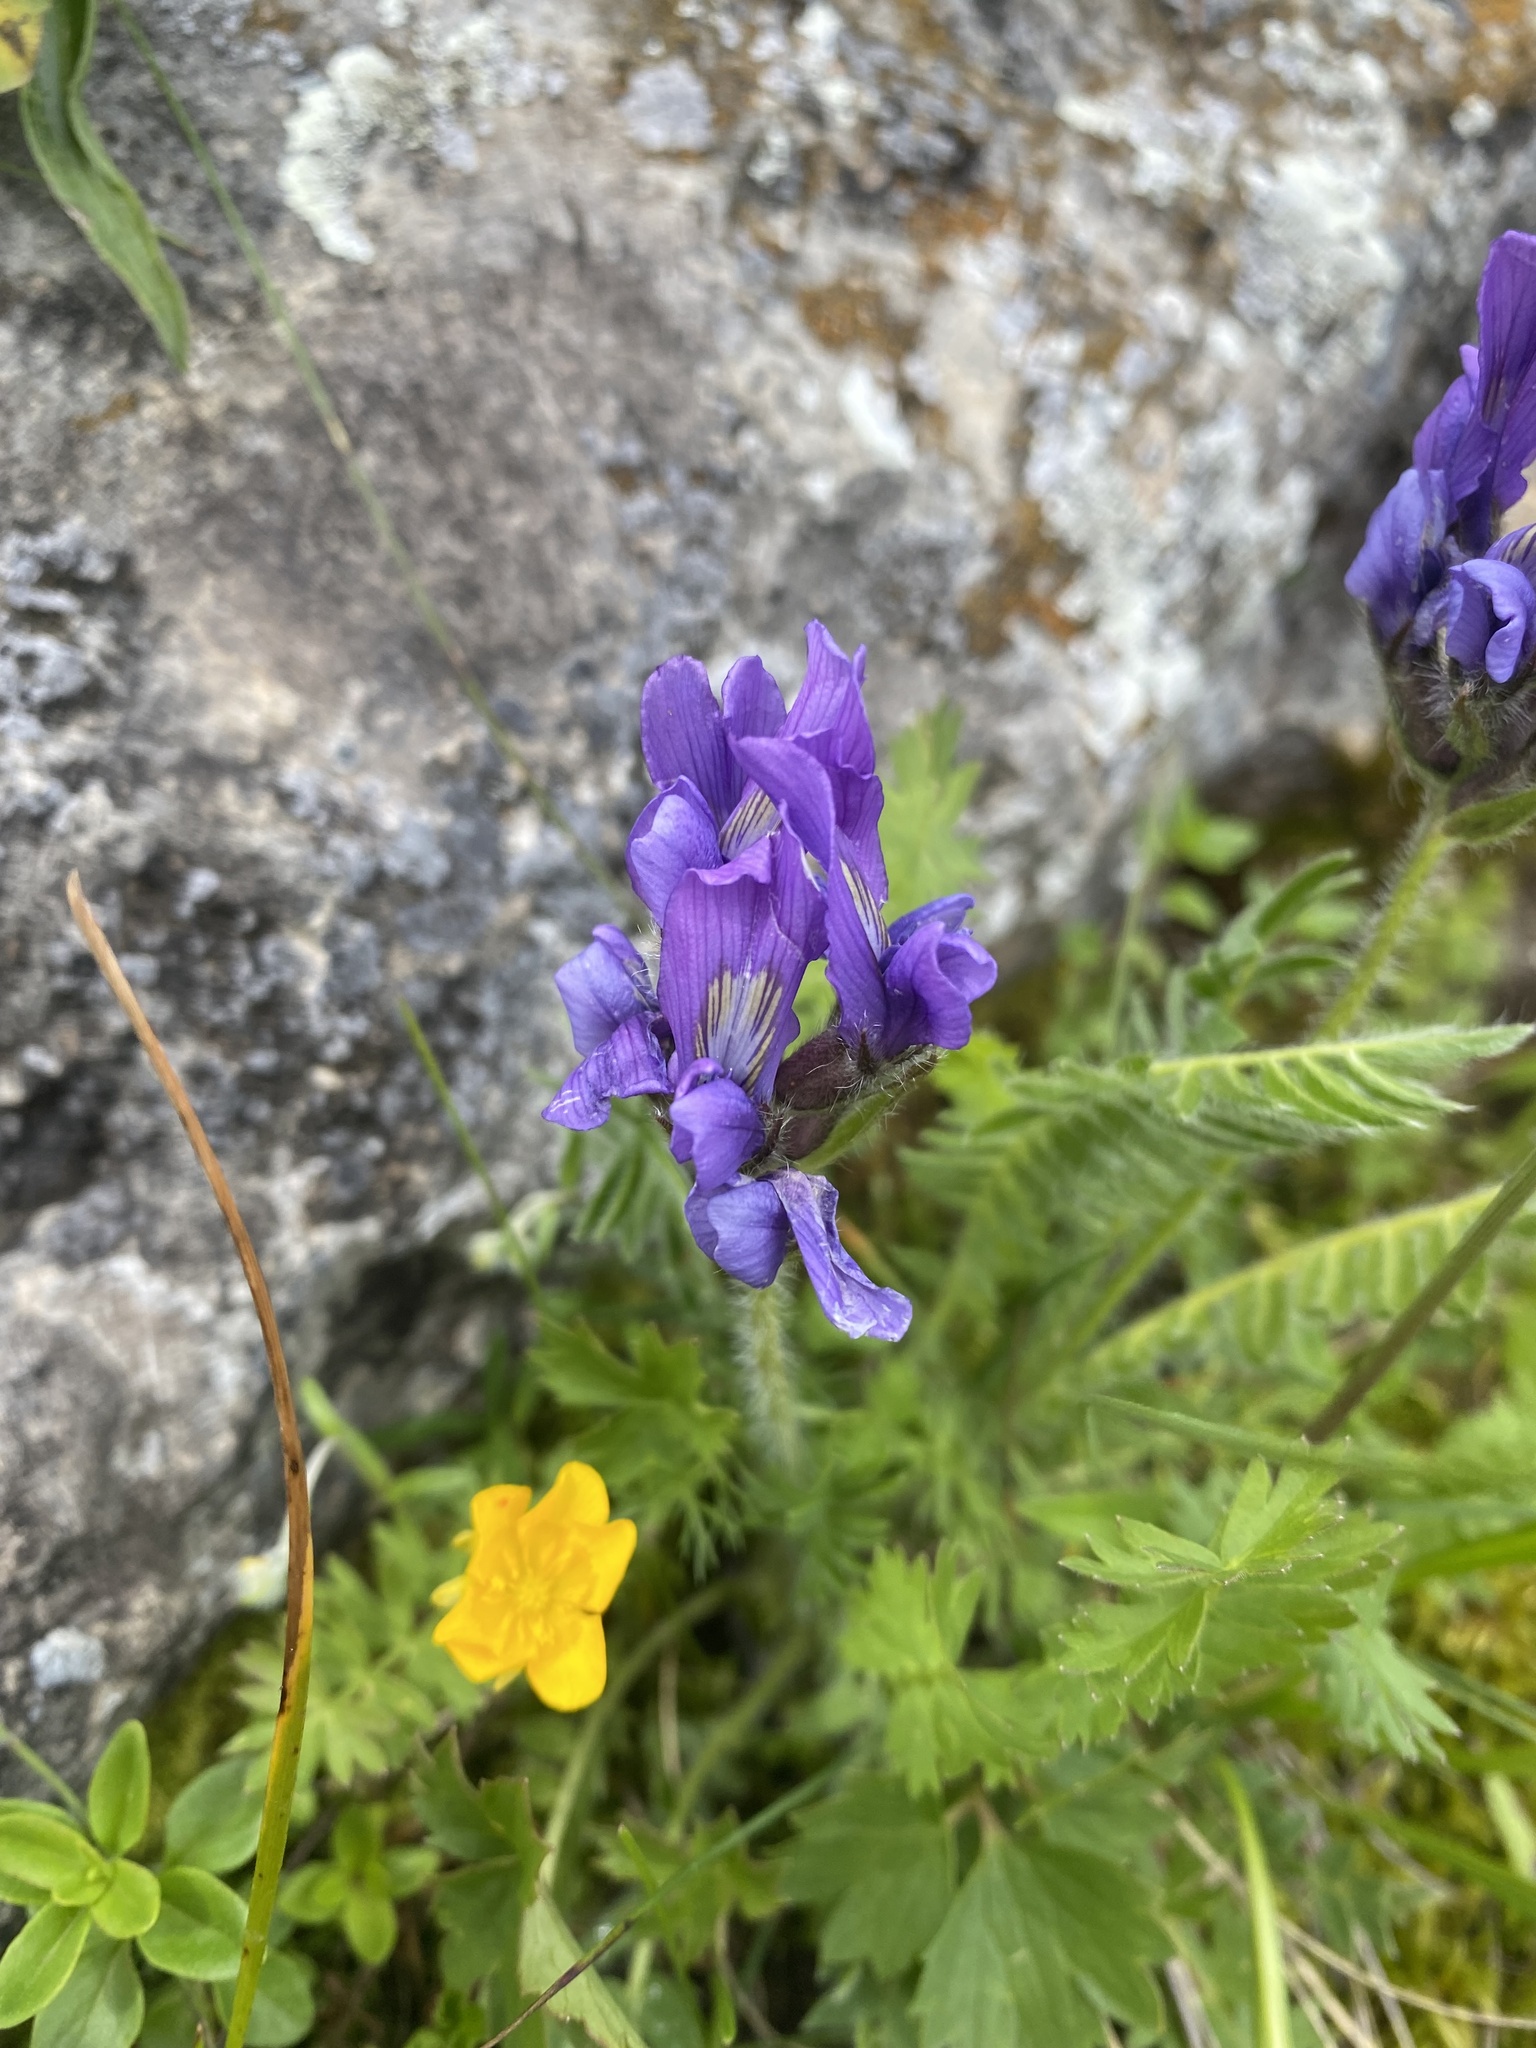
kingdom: Plantae
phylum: Tracheophyta
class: Magnoliopsida
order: Fabales
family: Fabaceae
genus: Oxytropis
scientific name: Oxytropis lazica
